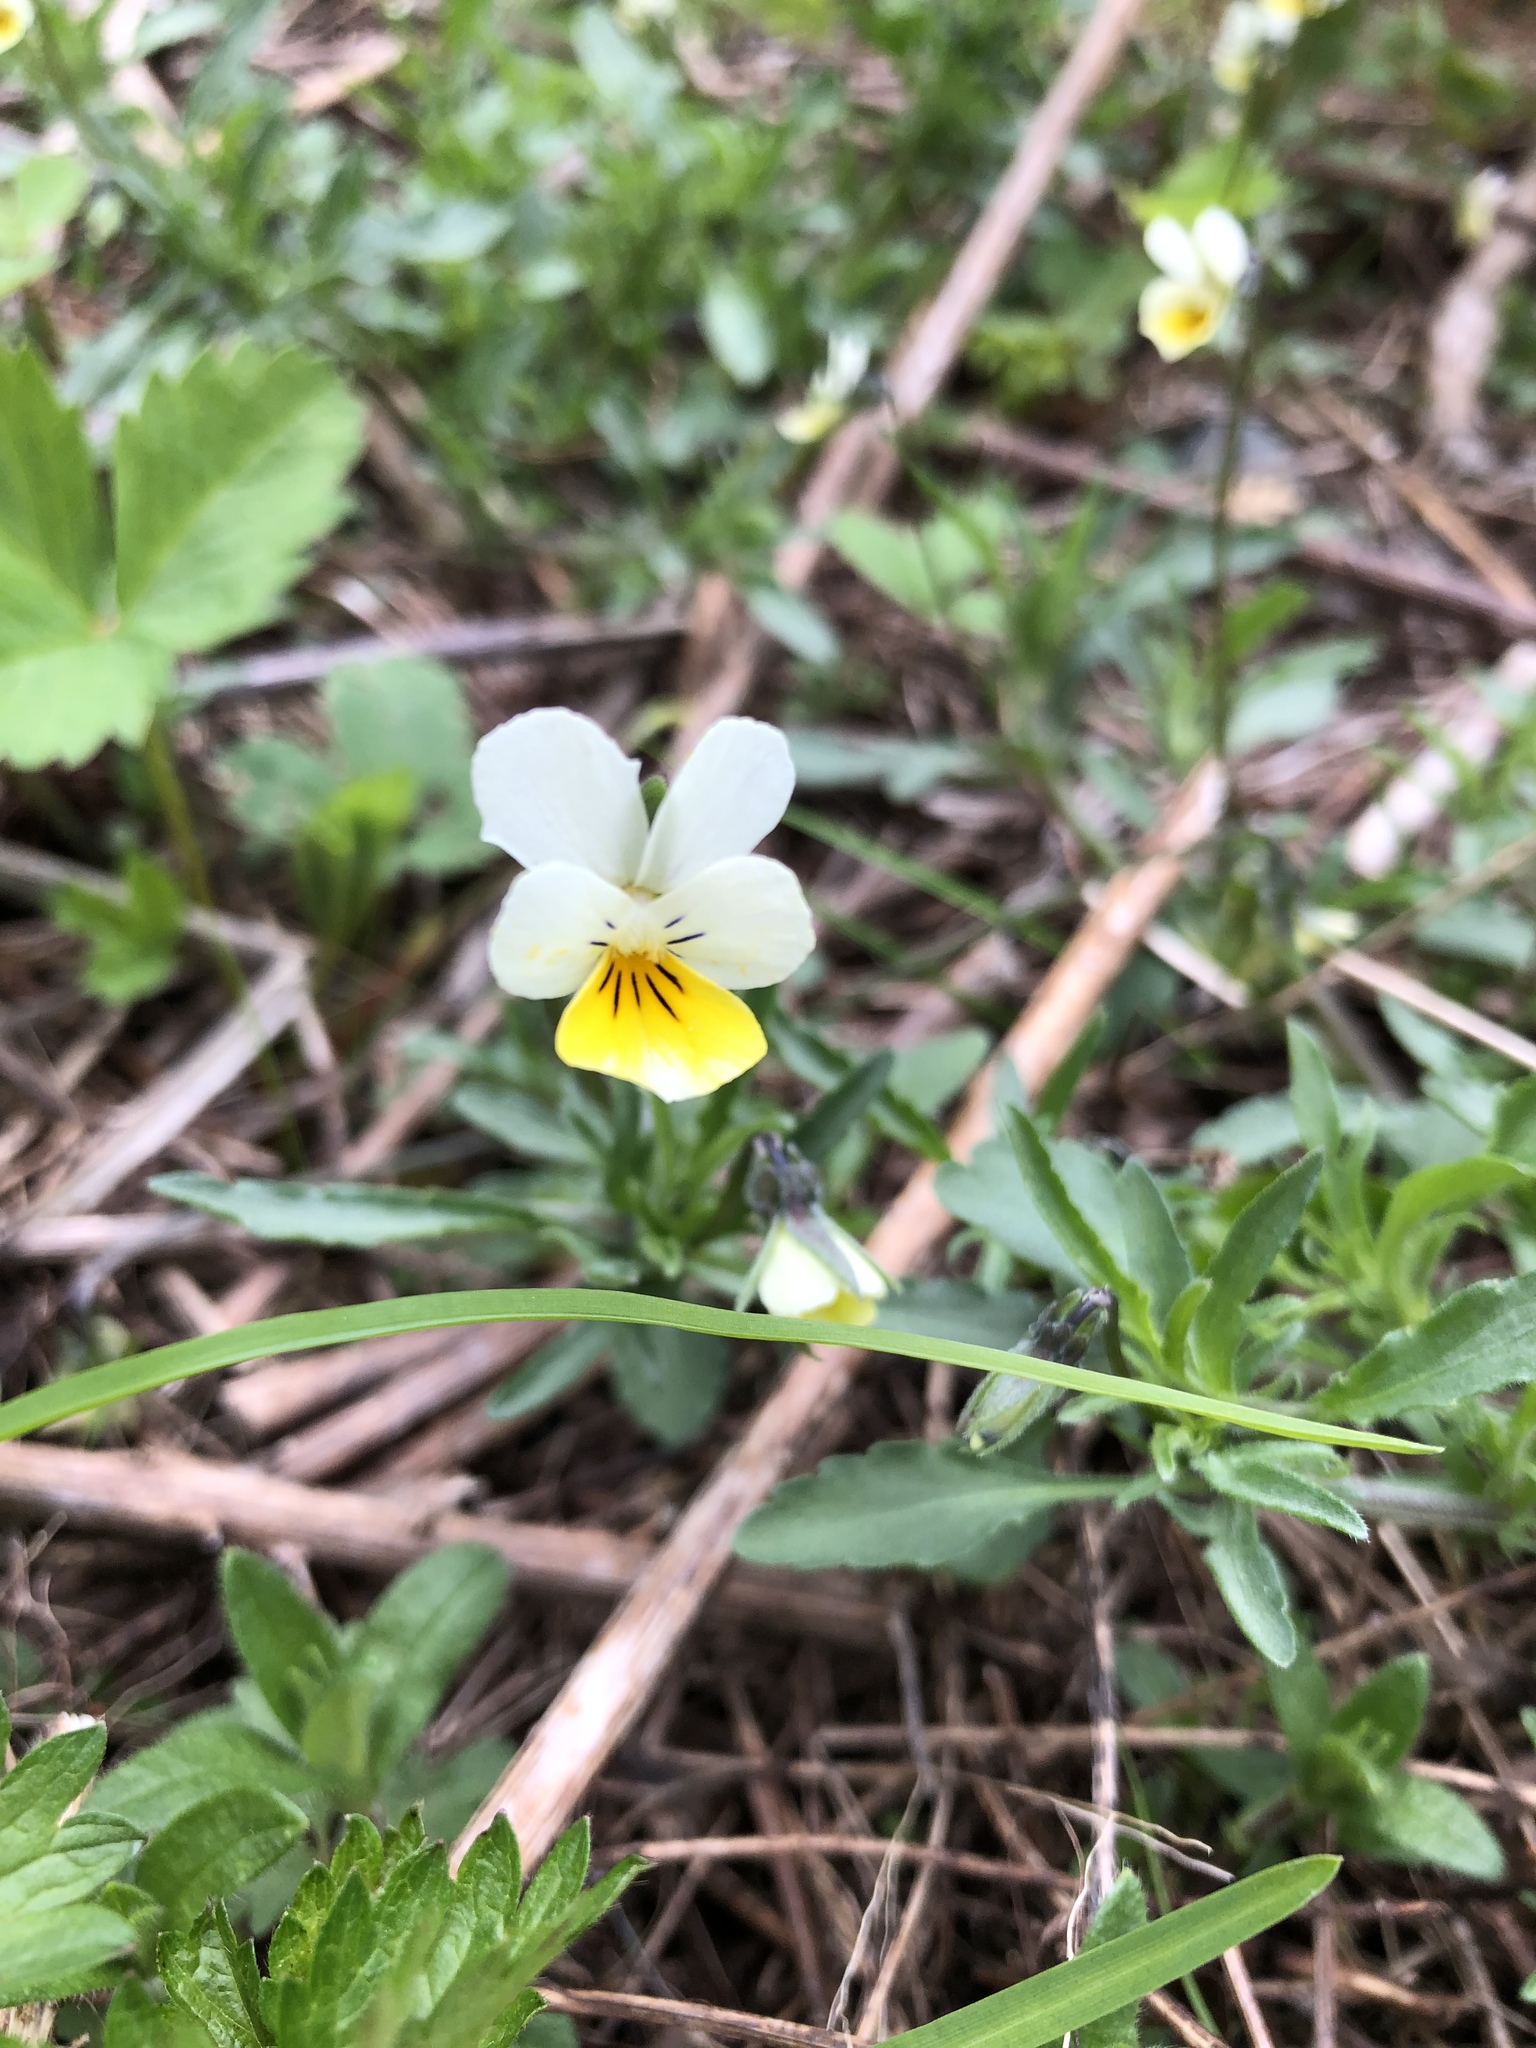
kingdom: Plantae
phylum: Tracheophyta
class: Magnoliopsida
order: Malpighiales
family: Violaceae
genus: Viola
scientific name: Viola arvensis
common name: Field pansy
